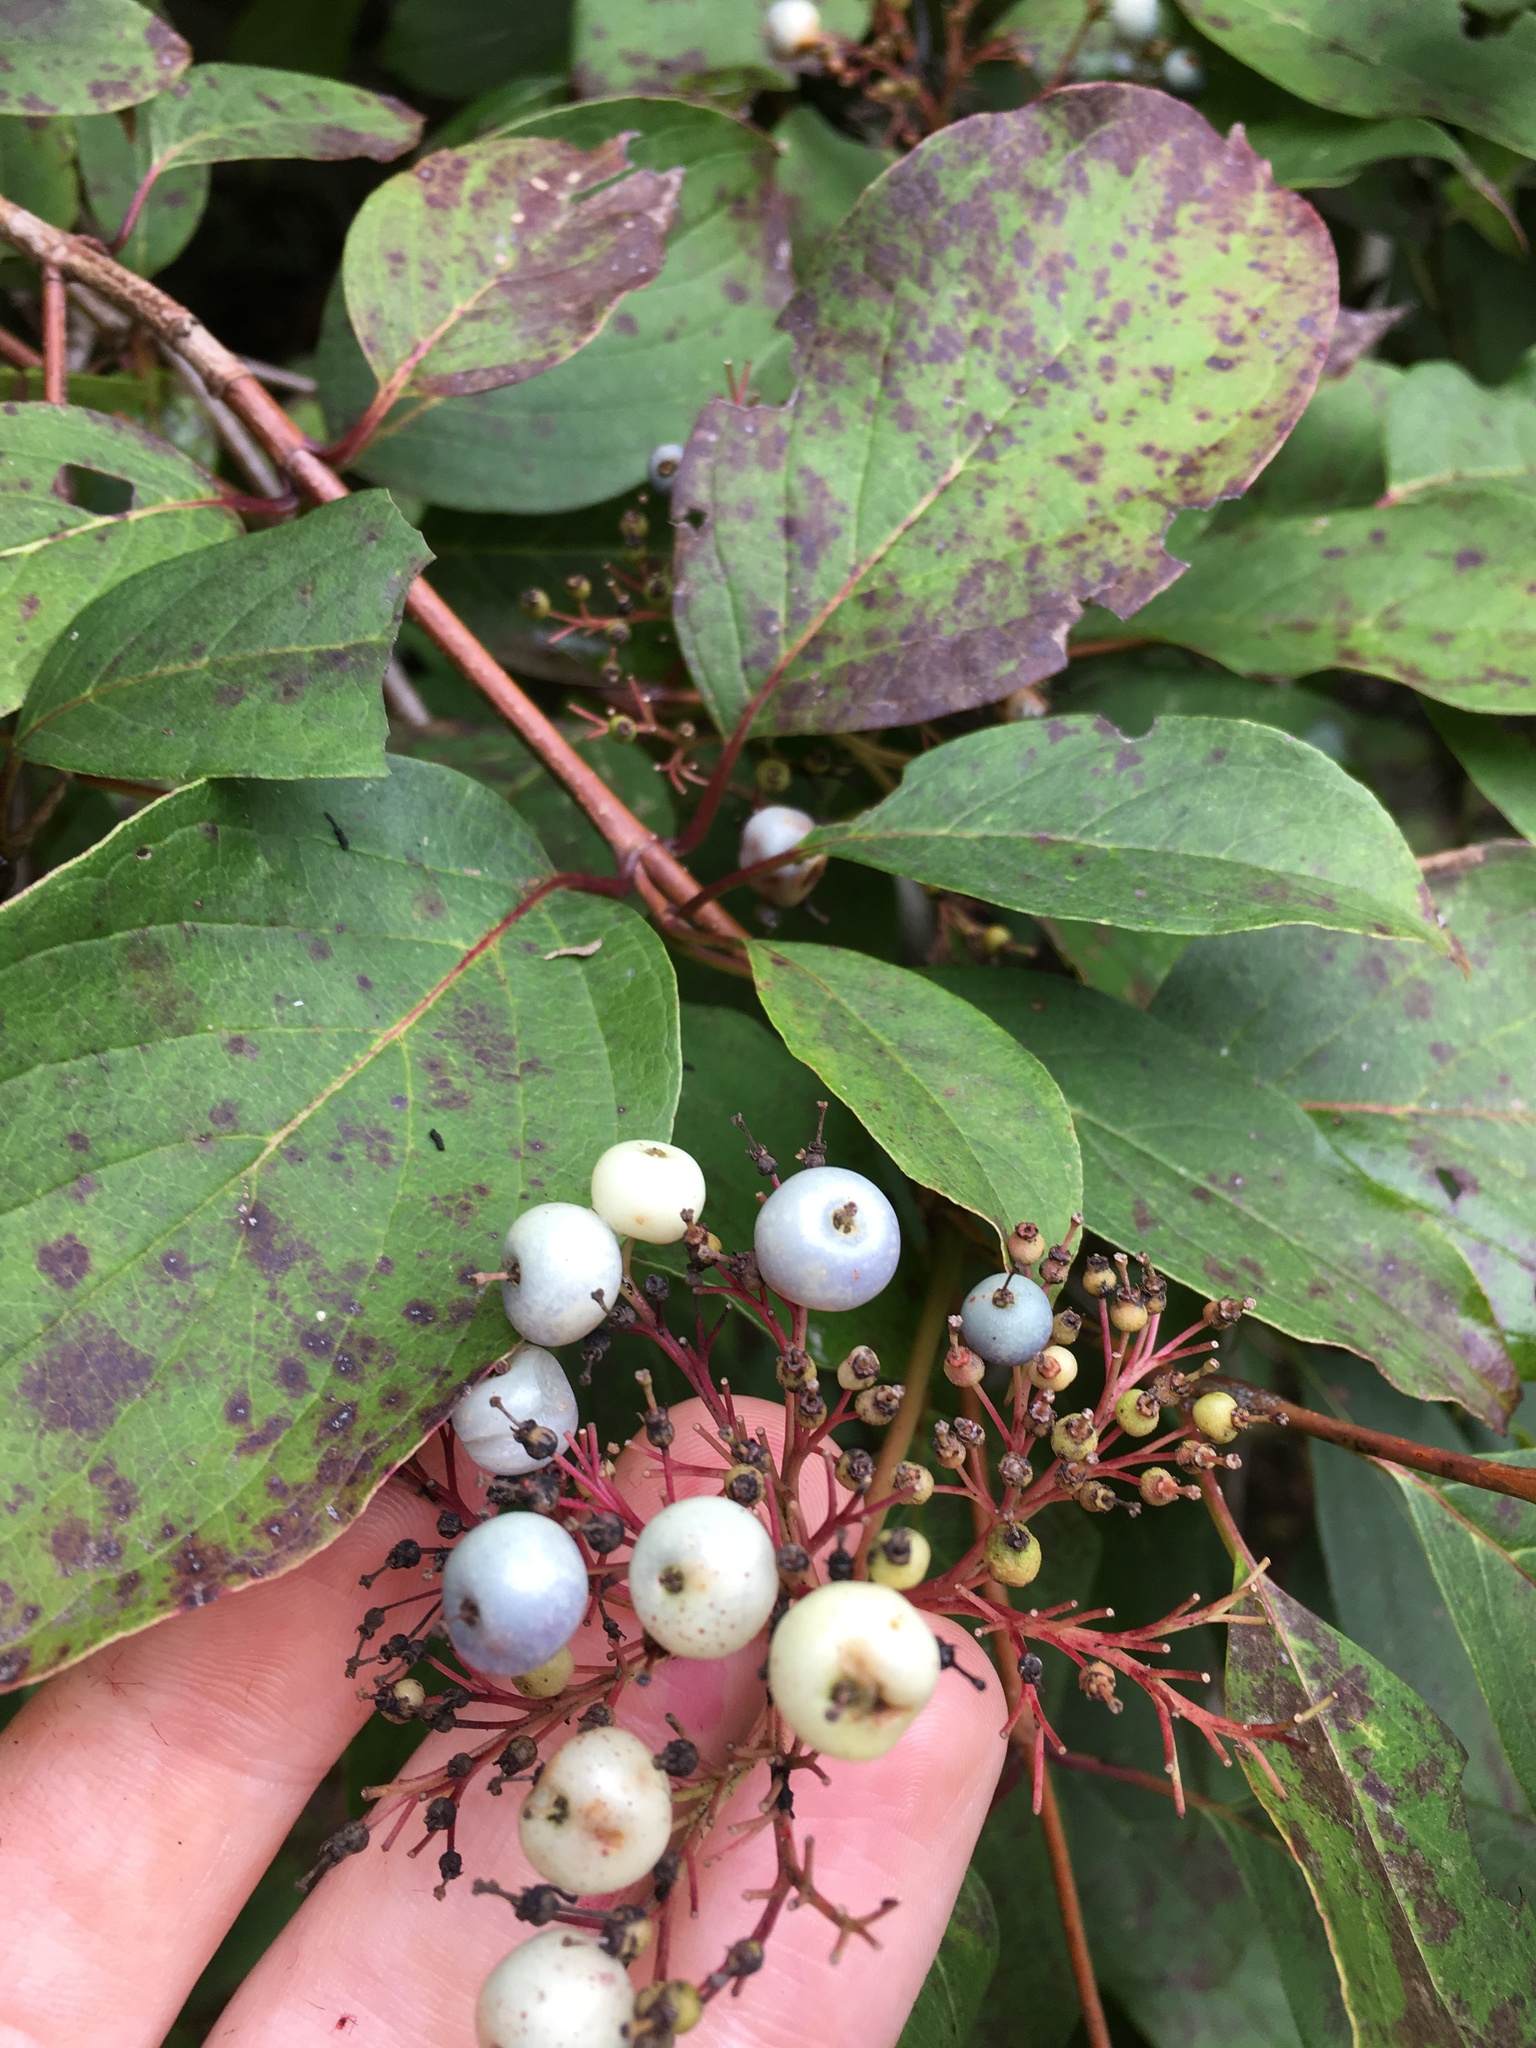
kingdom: Plantae
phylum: Tracheophyta
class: Magnoliopsida
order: Cornales
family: Cornaceae
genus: Cornus
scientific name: Cornus amomum
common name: Silky dogwood
